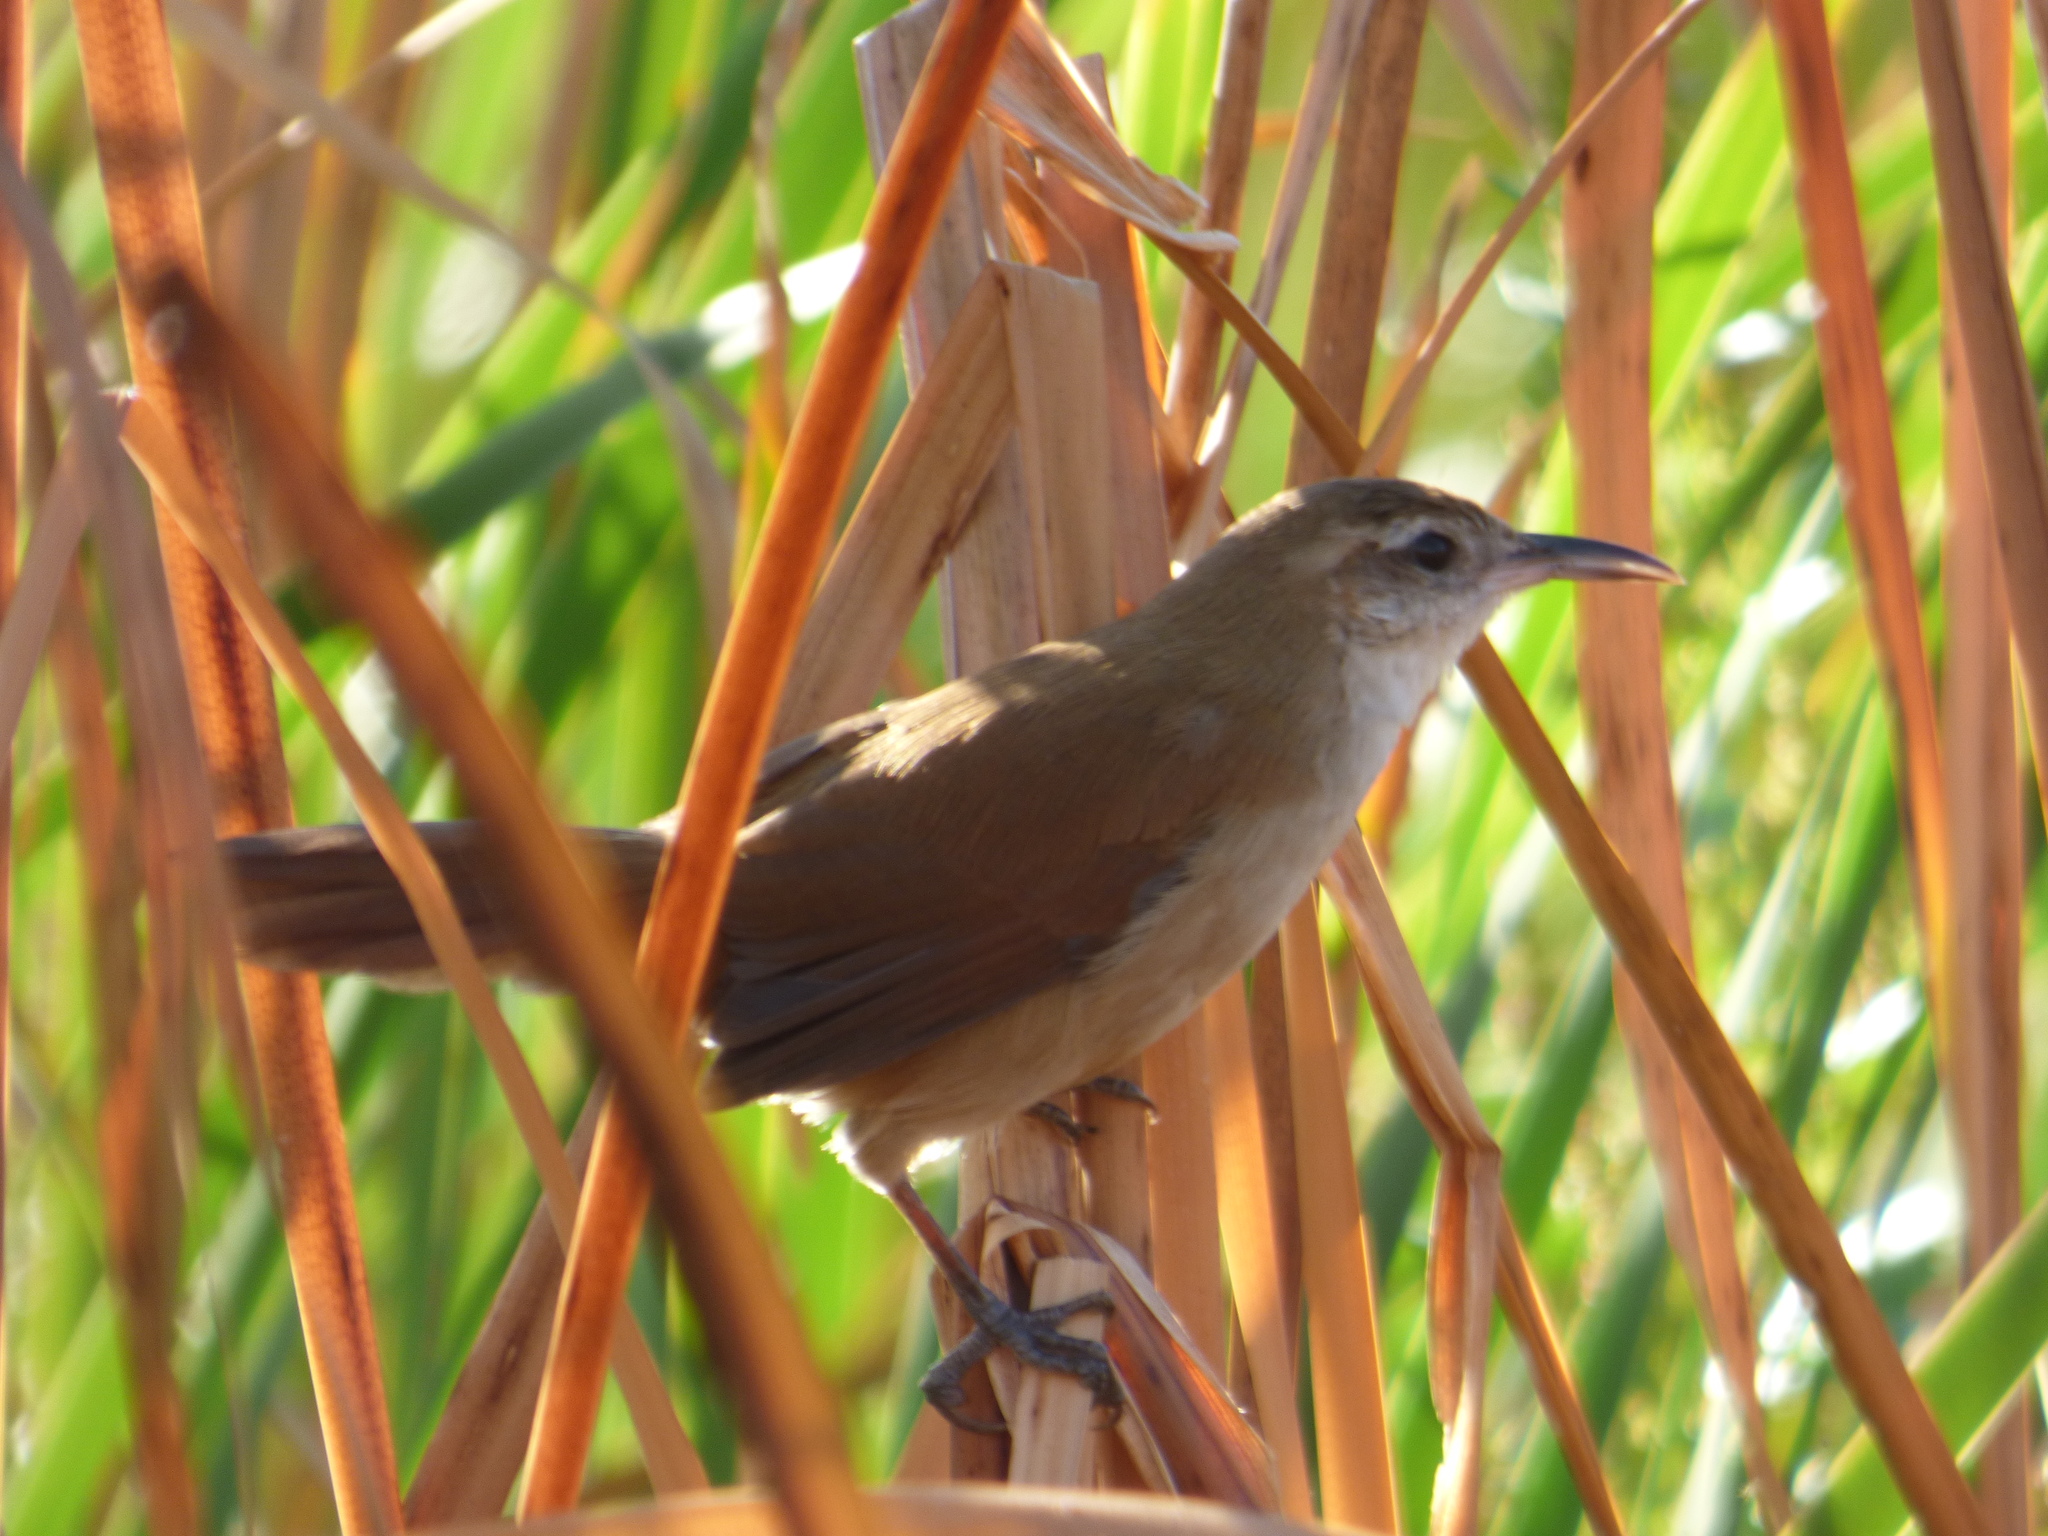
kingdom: Animalia
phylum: Chordata
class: Aves
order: Passeriformes
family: Furnariidae
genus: Limnornis
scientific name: Limnornis curvirostris
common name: Curve-billed reedhaunter
